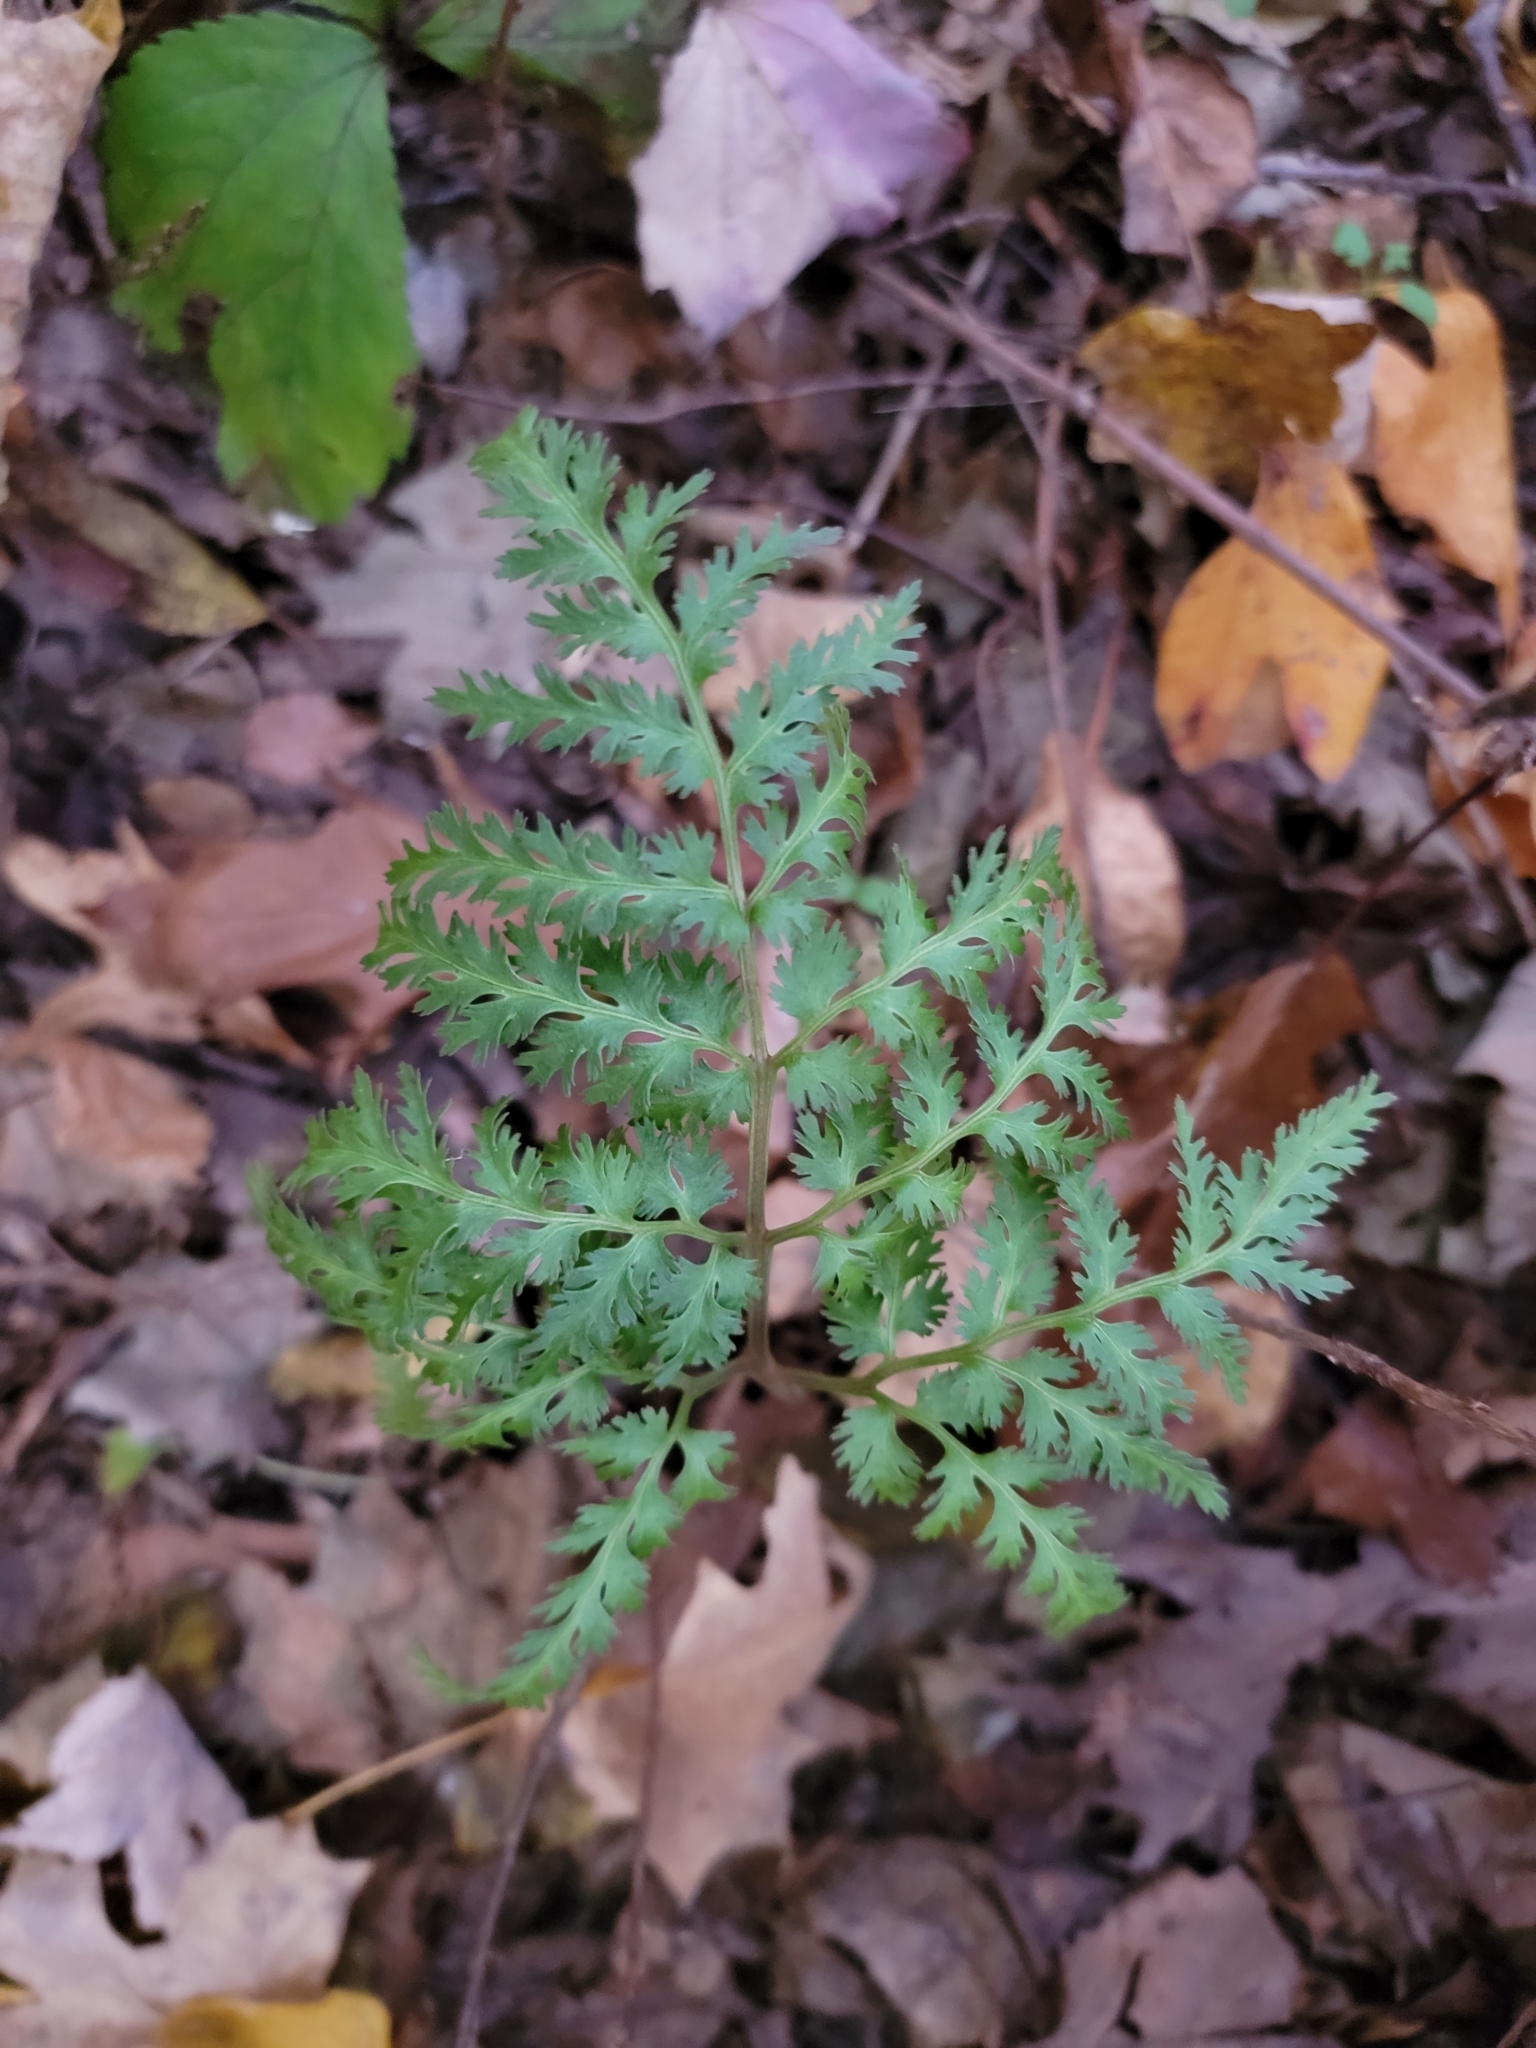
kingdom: Plantae
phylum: Tracheophyta
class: Polypodiopsida
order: Ophioglossales
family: Ophioglossaceae
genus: Sceptridium
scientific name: Sceptridium dissectum
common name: Cut-leaved grapefern
